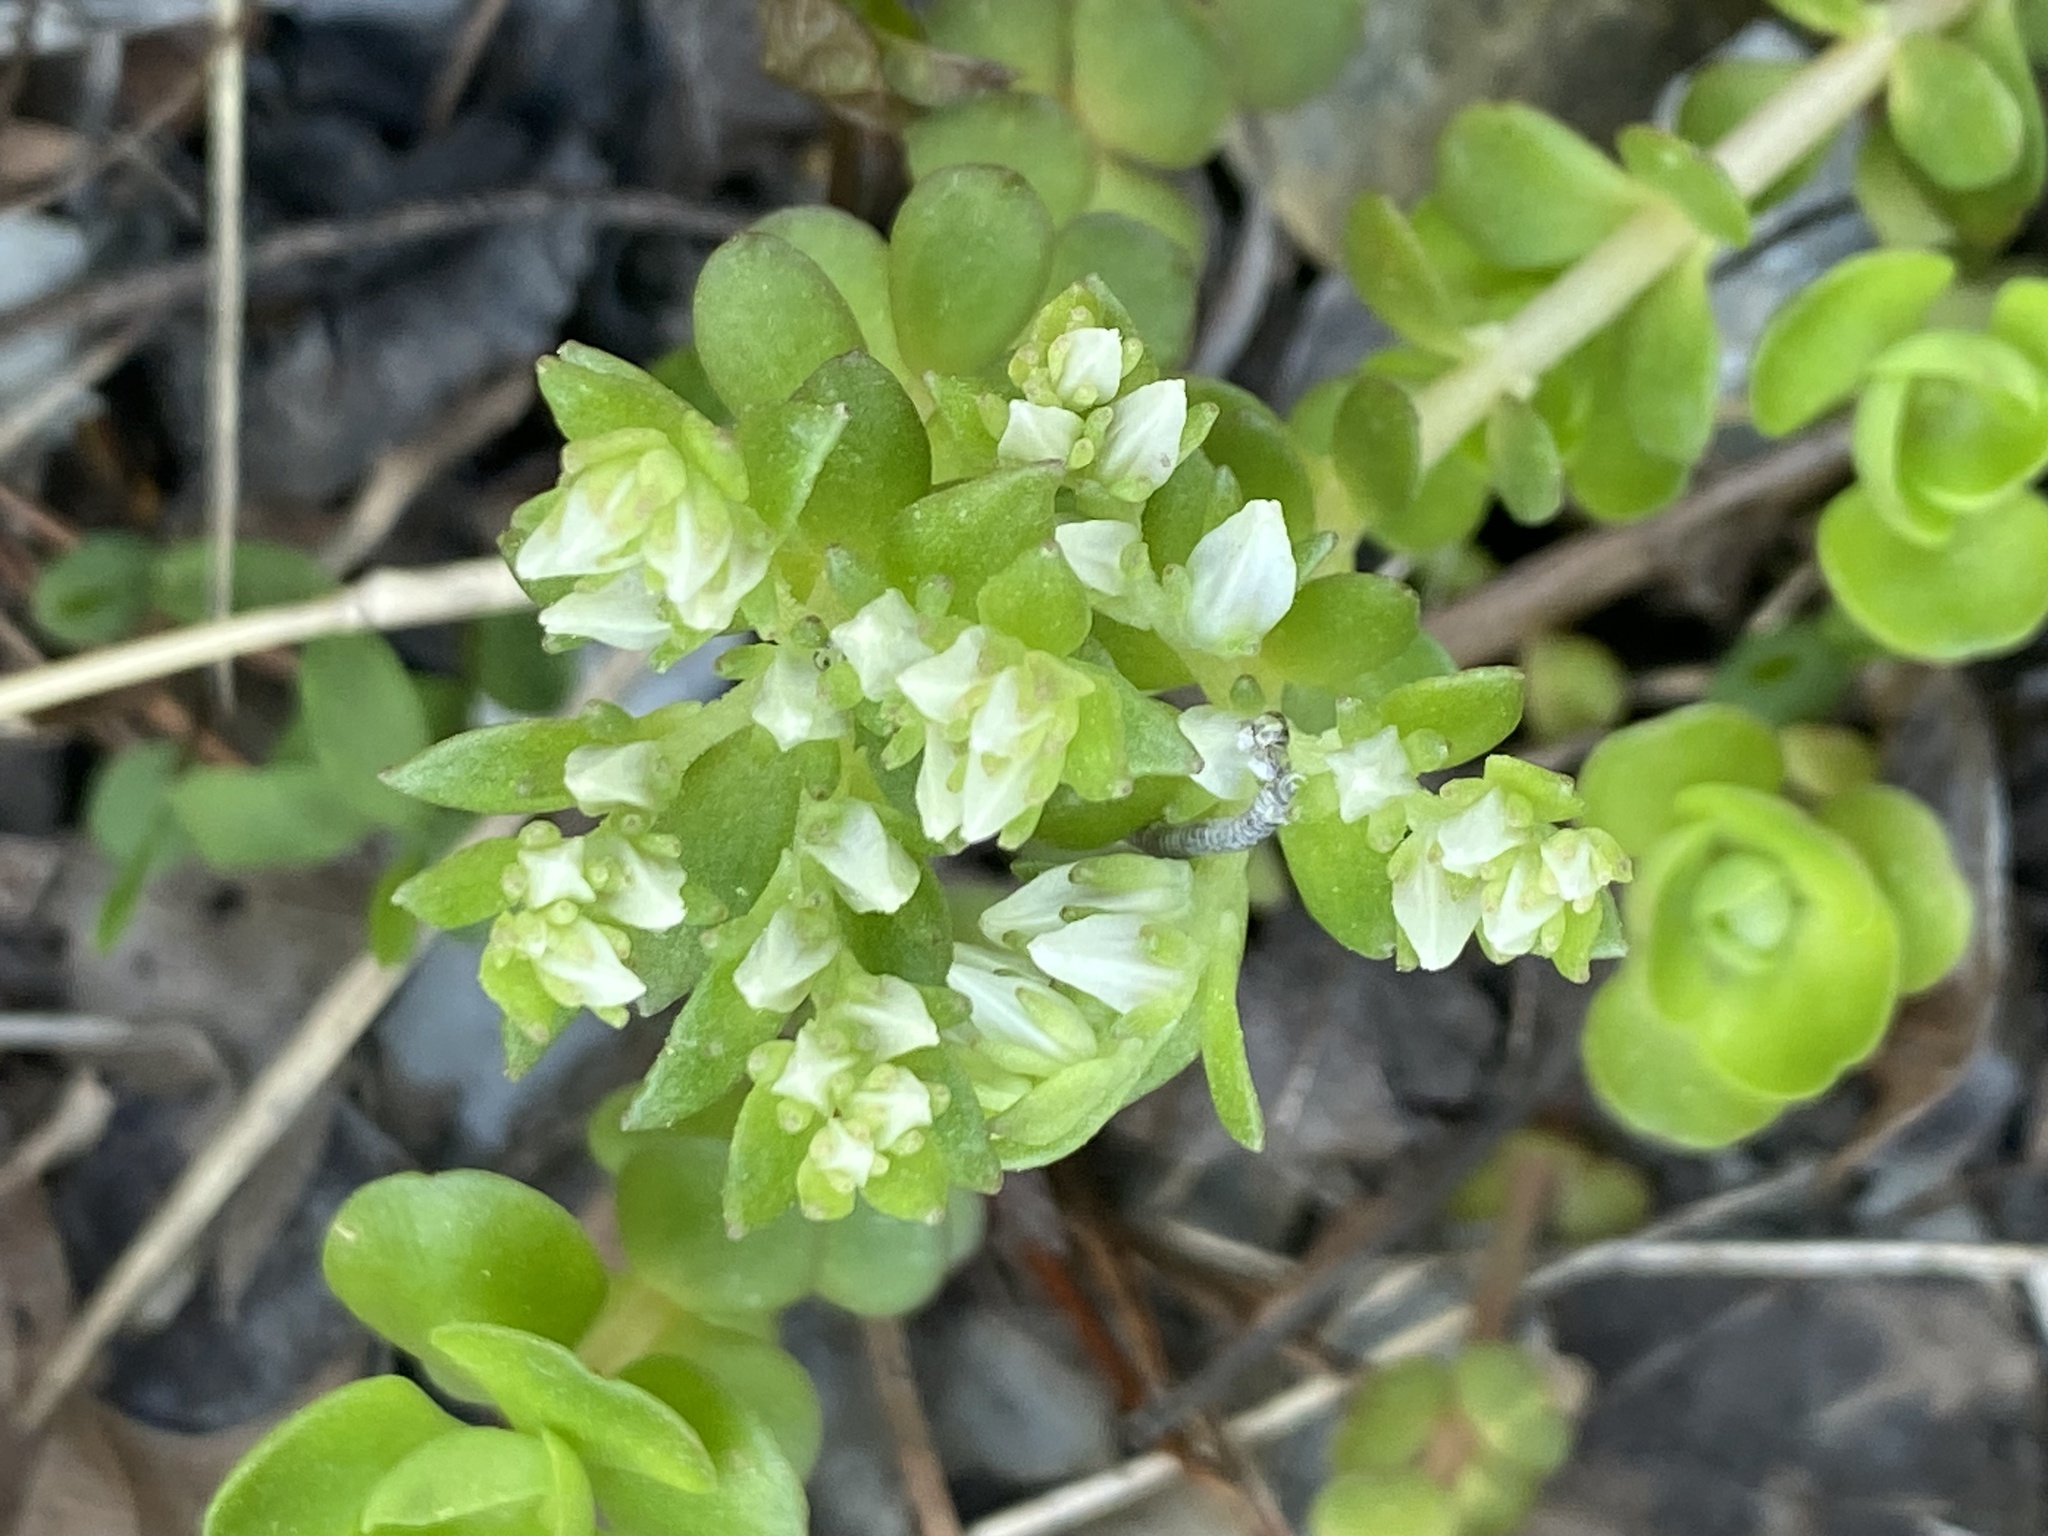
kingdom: Plantae
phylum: Tracheophyta
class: Magnoliopsida
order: Saxifragales
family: Crassulaceae
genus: Sedum
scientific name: Sedum ternatum
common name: Wild stonecrop
